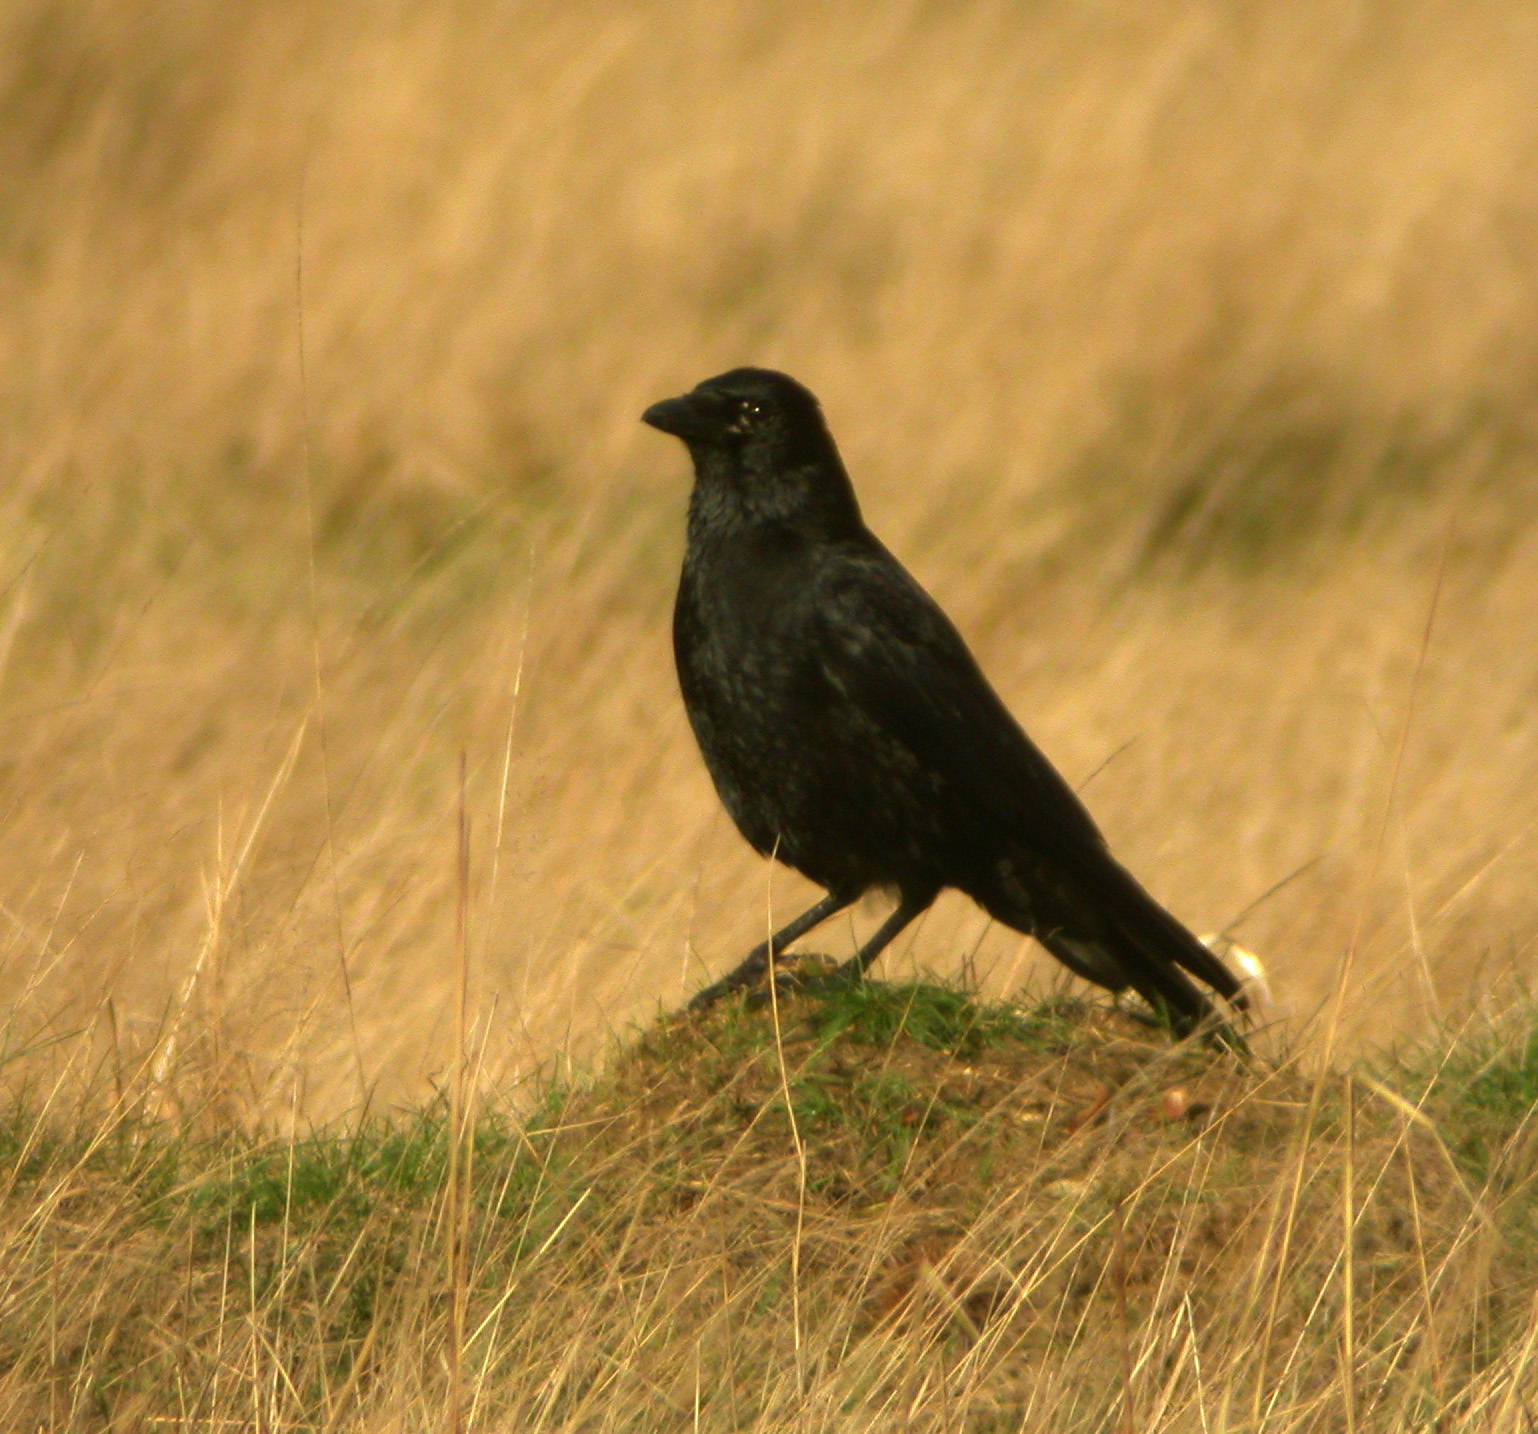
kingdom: Animalia
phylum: Chordata
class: Aves
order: Passeriformes
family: Corvidae
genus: Corvus
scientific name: Corvus corone
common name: Carrion crow
